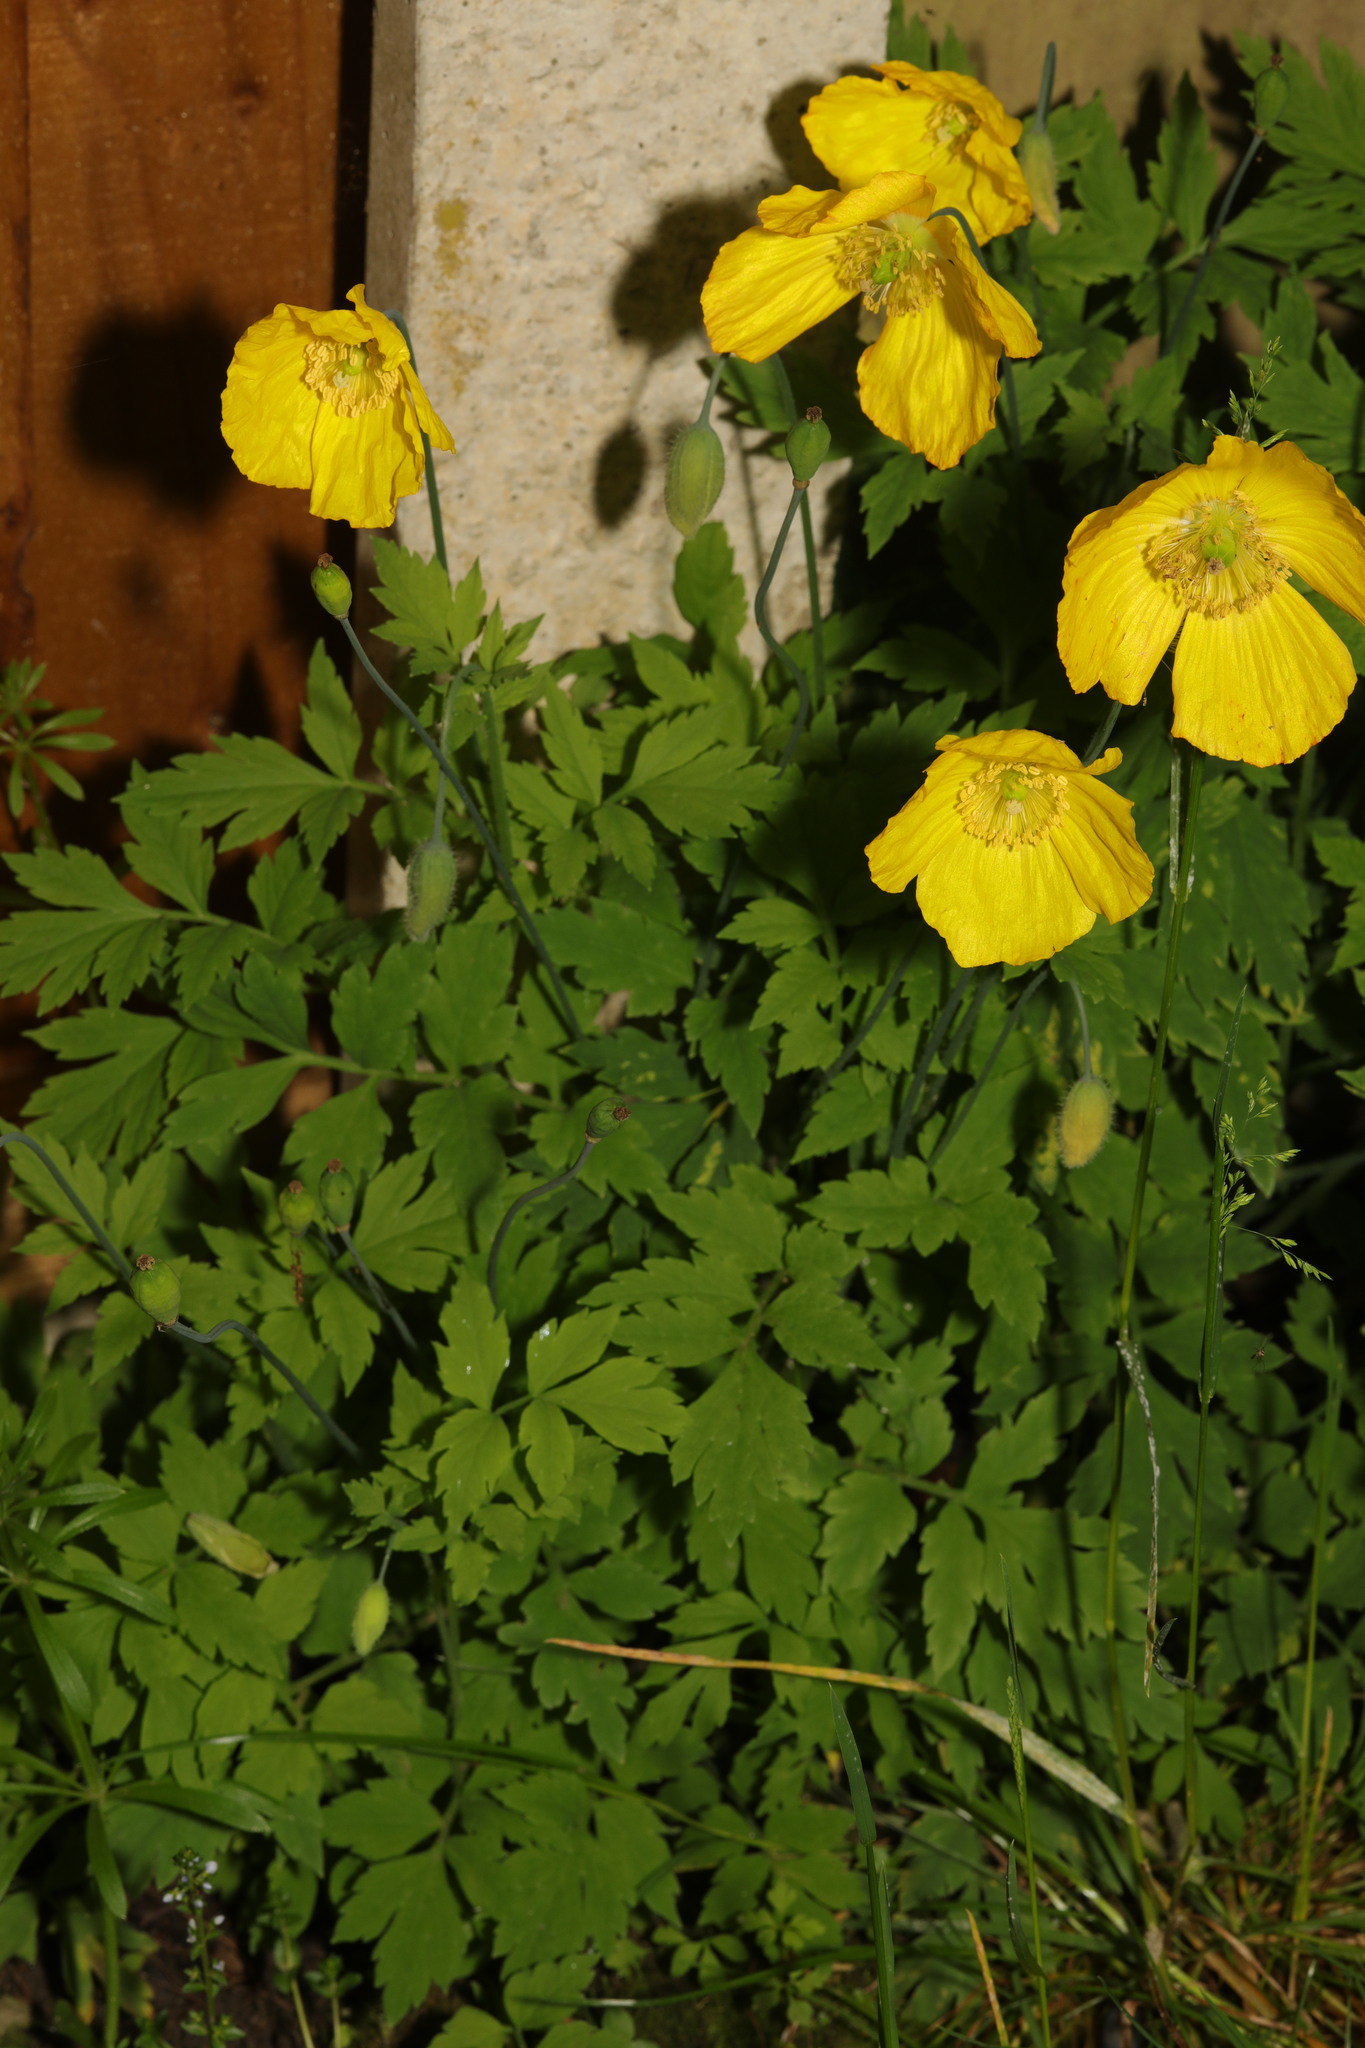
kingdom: Plantae
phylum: Tracheophyta
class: Magnoliopsida
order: Ranunculales
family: Papaveraceae
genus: Papaver
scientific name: Papaver cambricum
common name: Poppy
